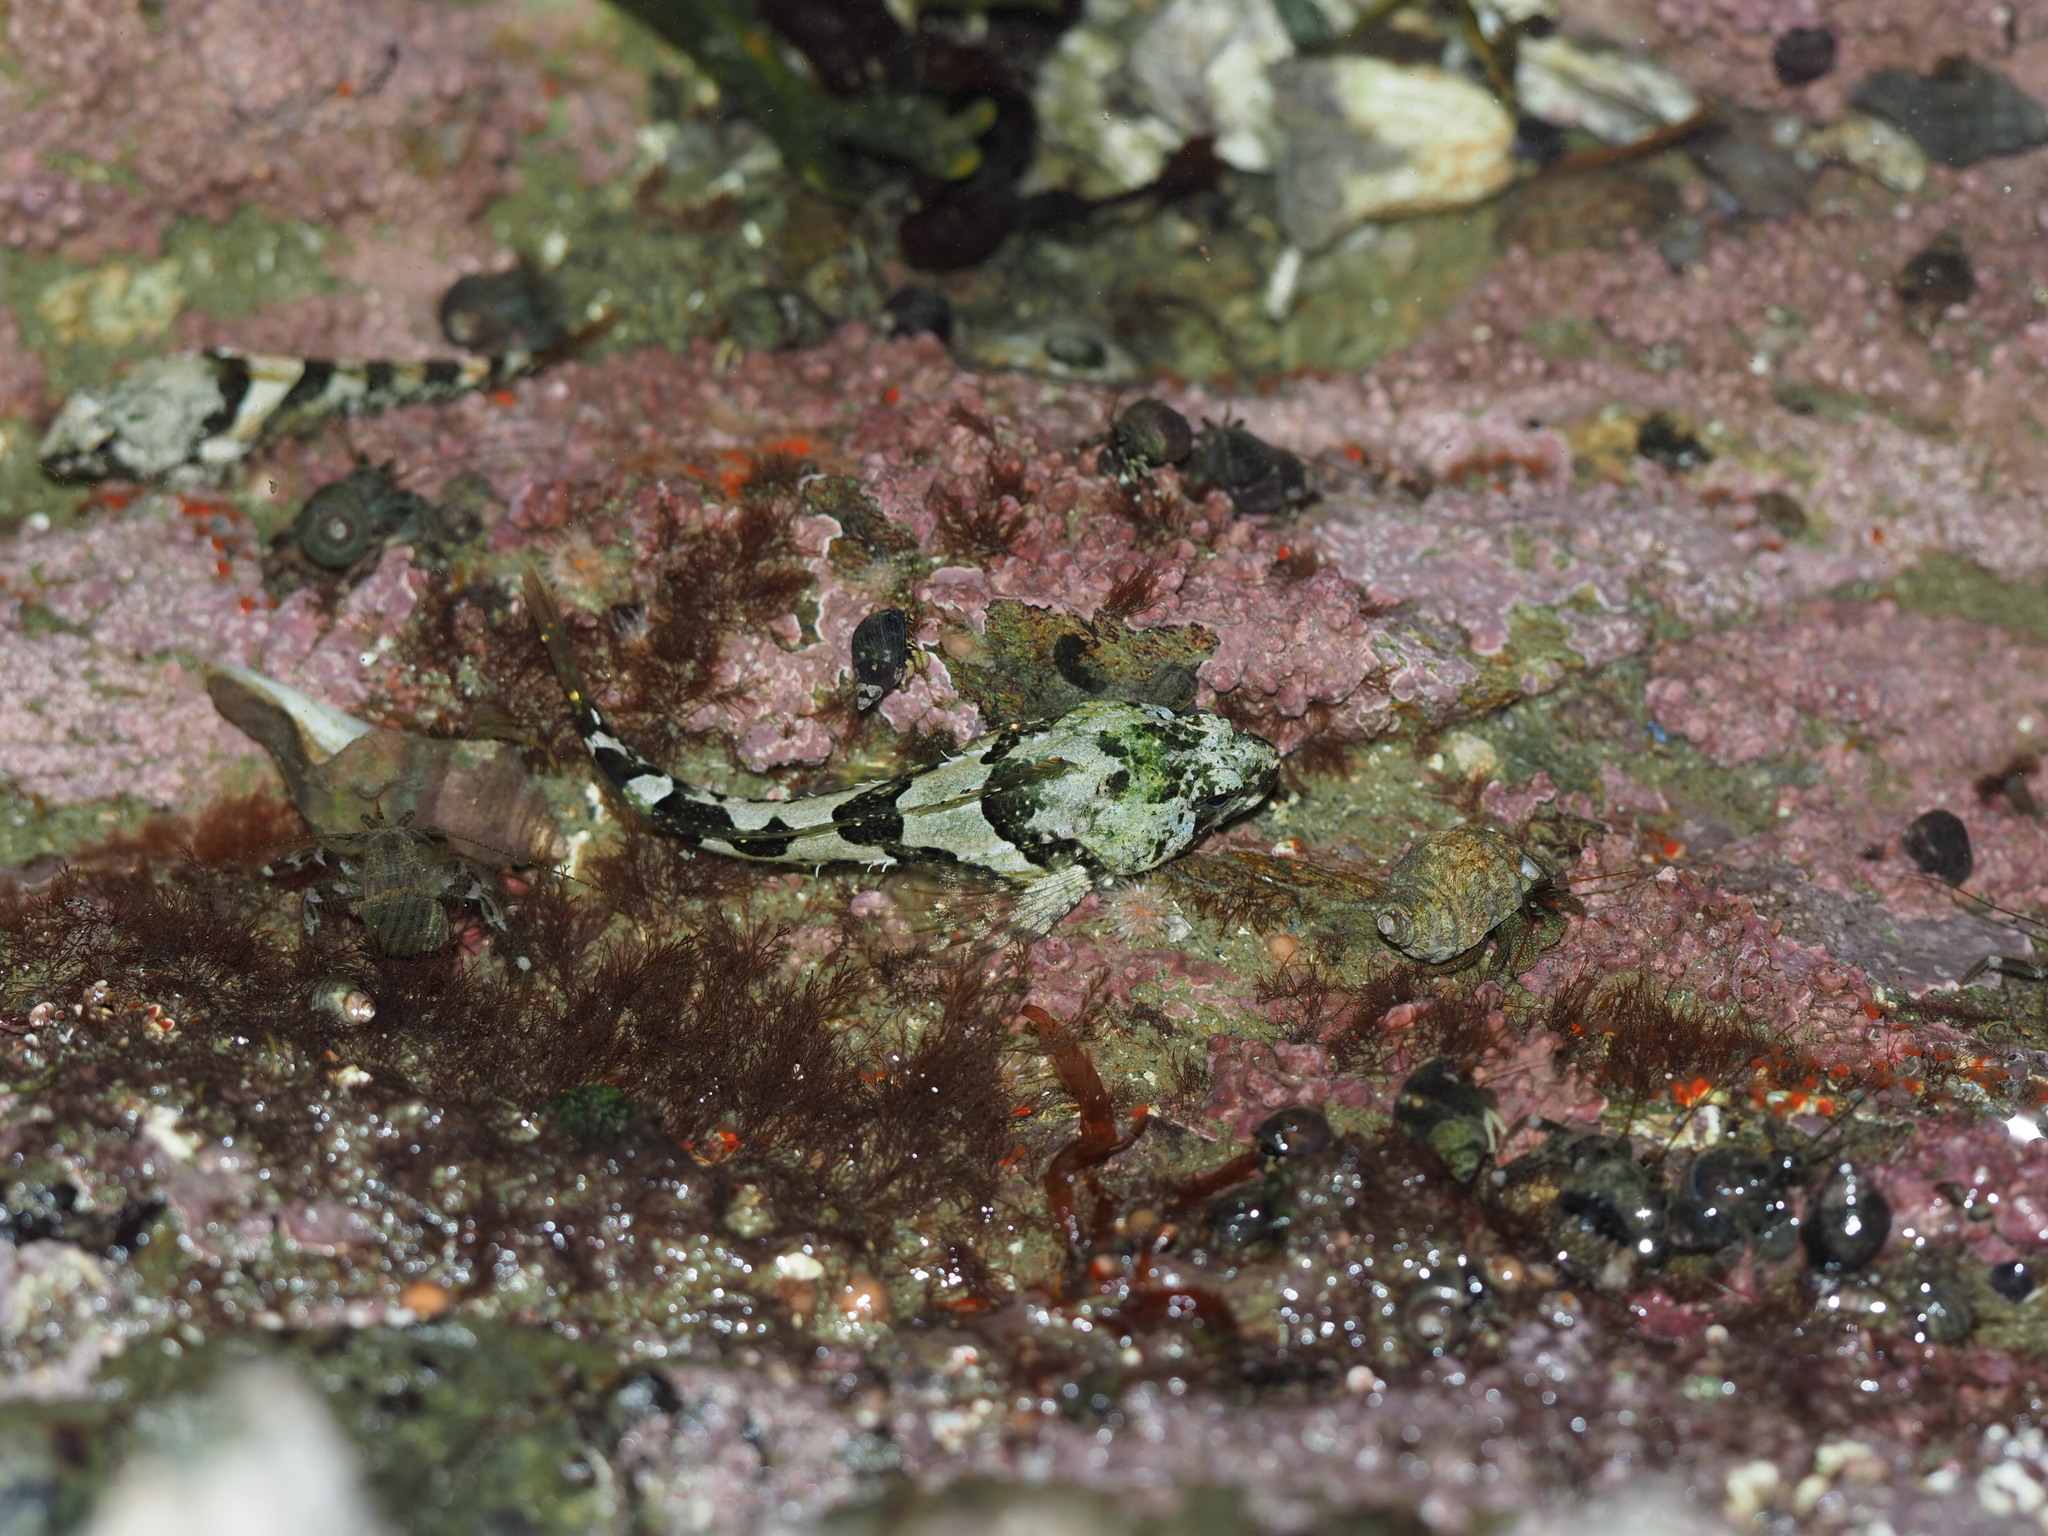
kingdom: Animalia
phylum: Chordata
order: Scorpaeniformes
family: Cottidae
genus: Oligocottus
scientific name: Oligocottus maculosus
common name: Tidepool sculpin
